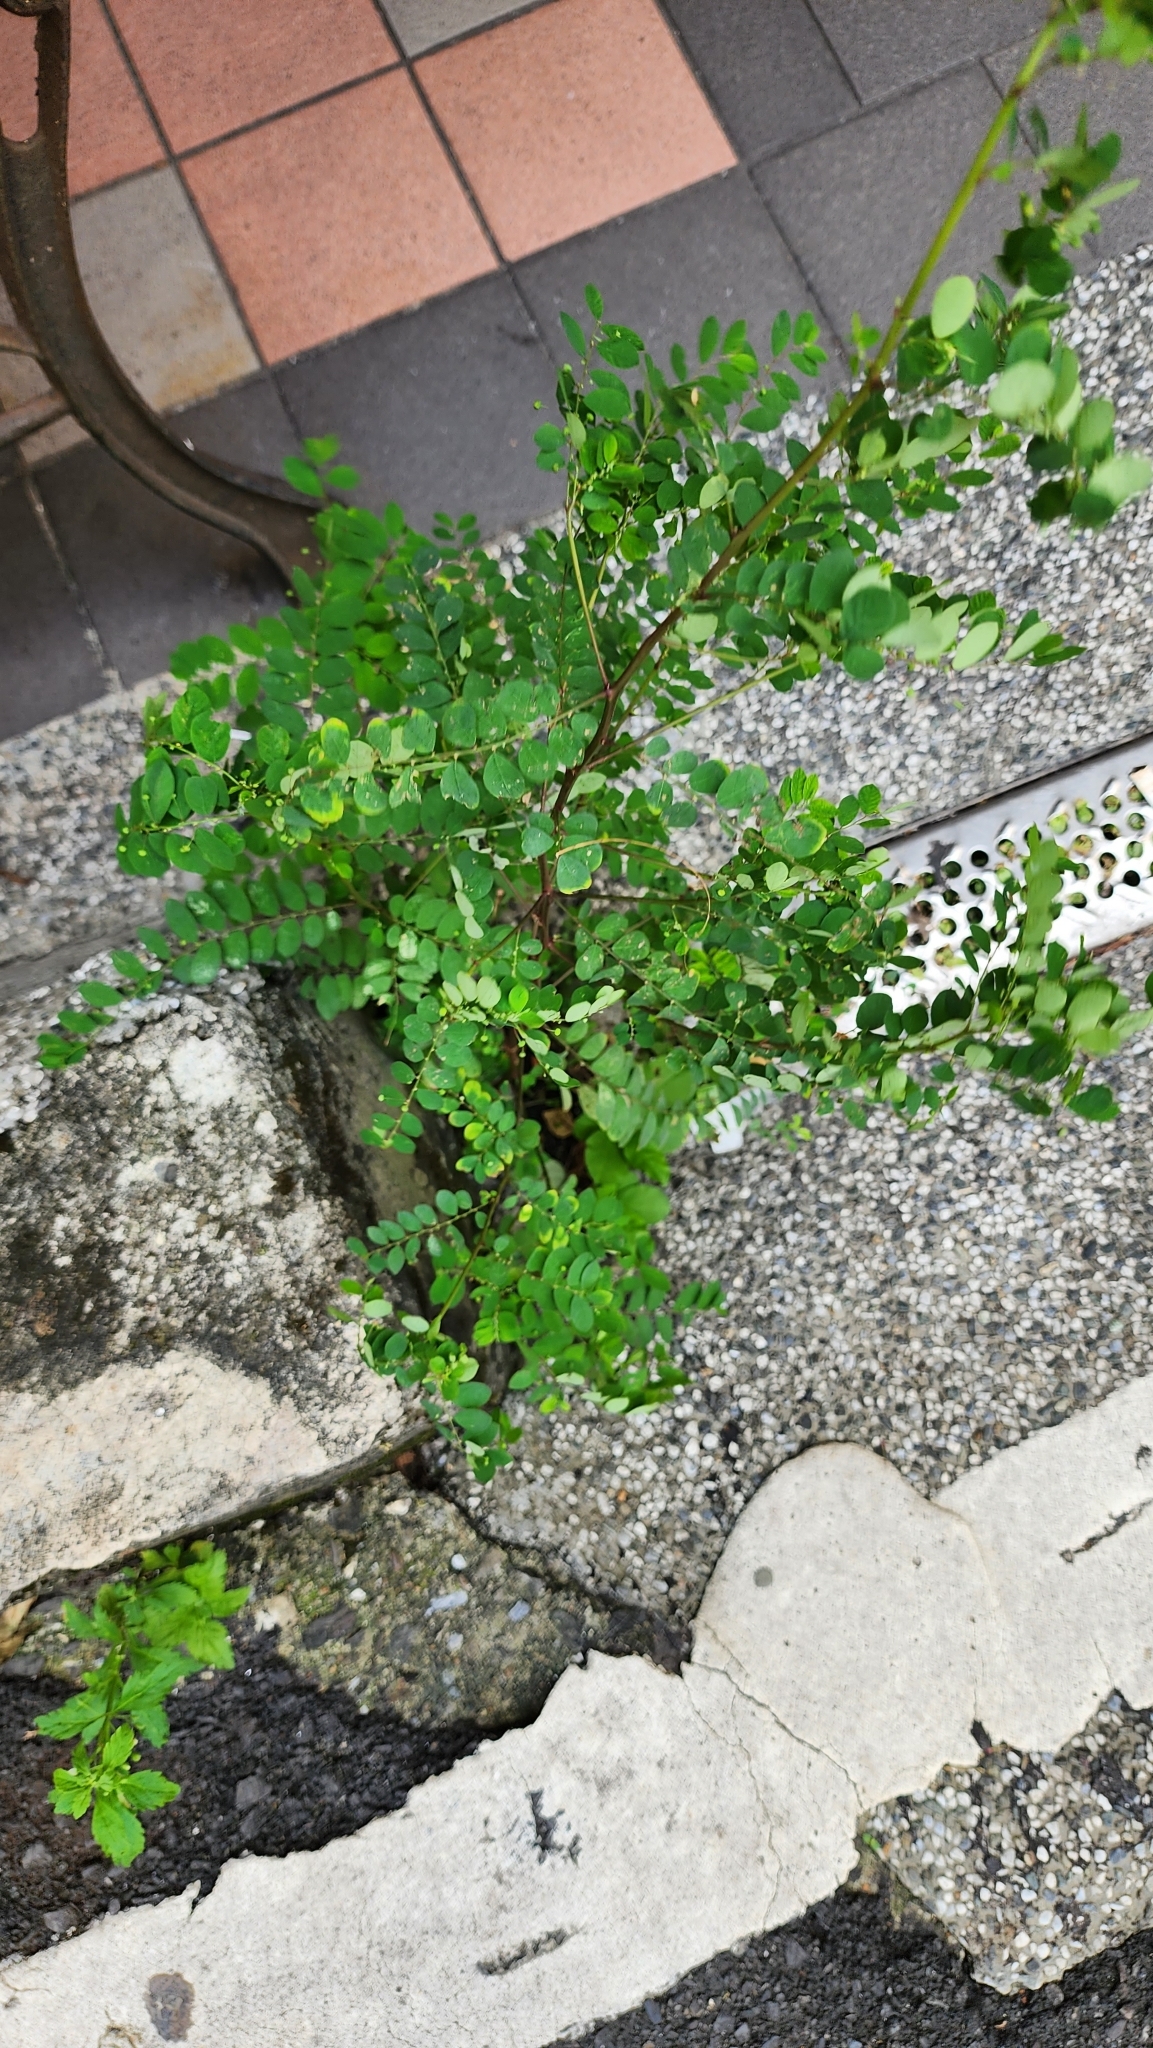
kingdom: Plantae
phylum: Tracheophyta
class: Magnoliopsida
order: Malpighiales
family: Phyllanthaceae
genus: Phyllanthus
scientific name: Phyllanthus tenellus
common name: Mascarene island leaf-flower
